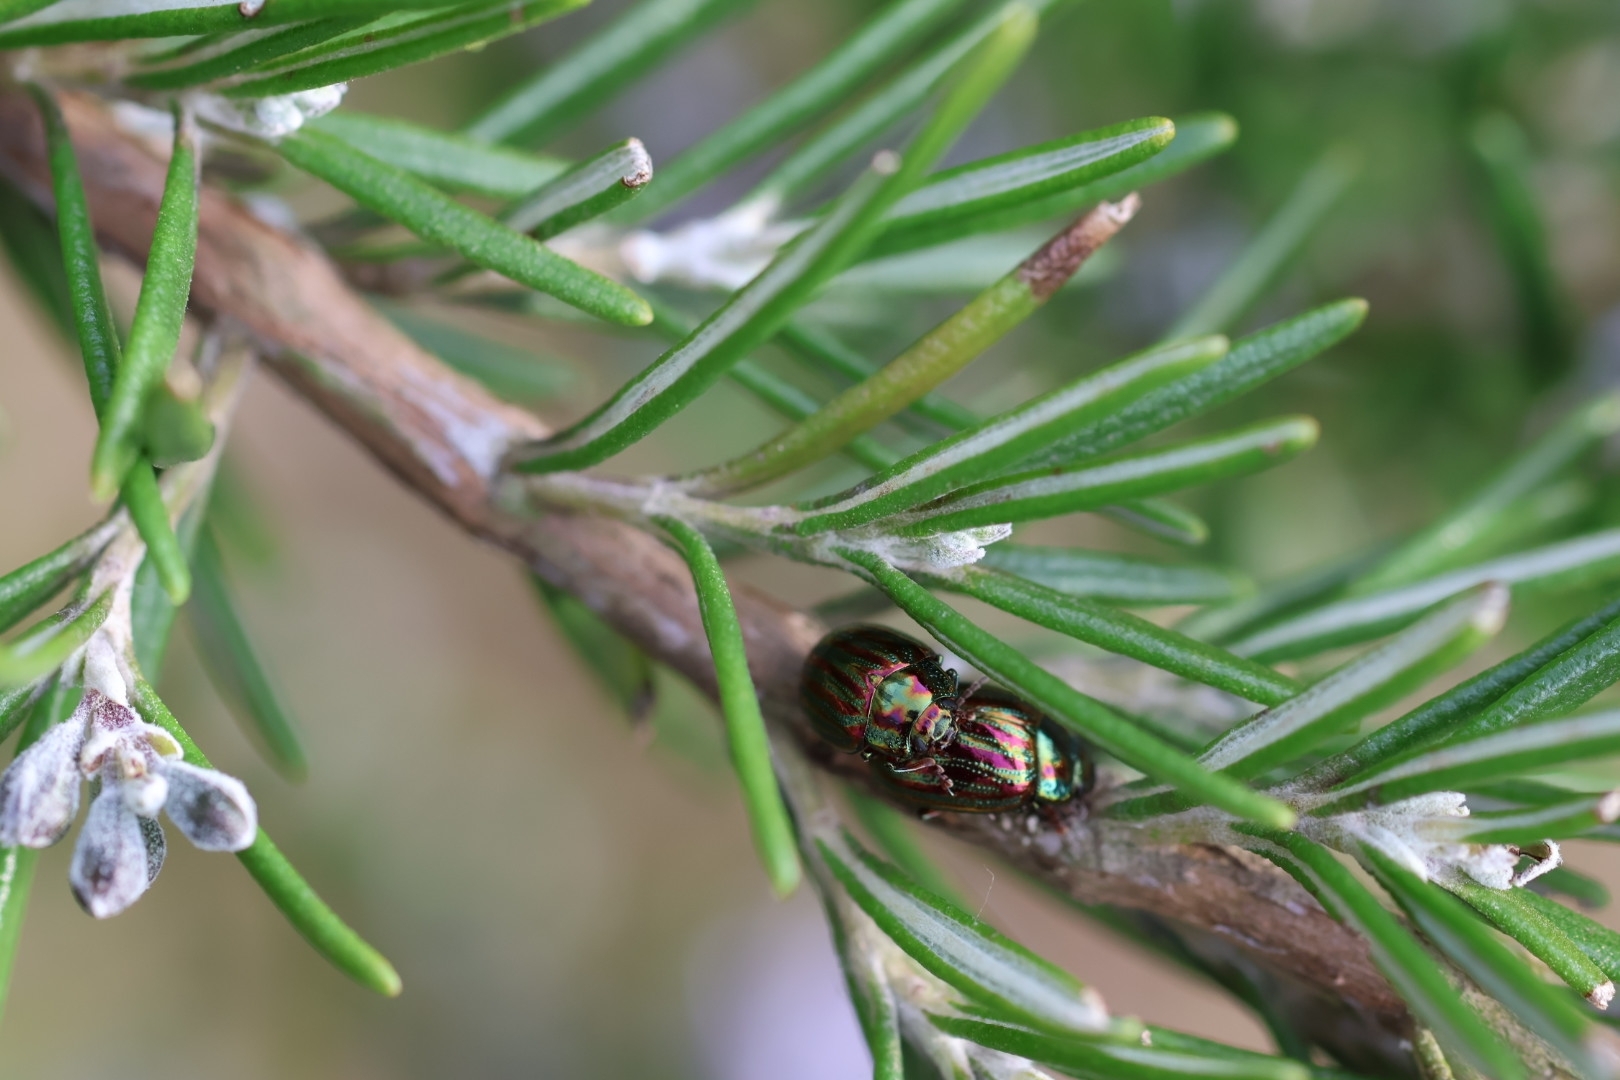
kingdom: Animalia
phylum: Arthropoda
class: Insecta
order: Coleoptera
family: Chrysomelidae
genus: Chrysolina
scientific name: Chrysolina americana
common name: Rosemary beetle
